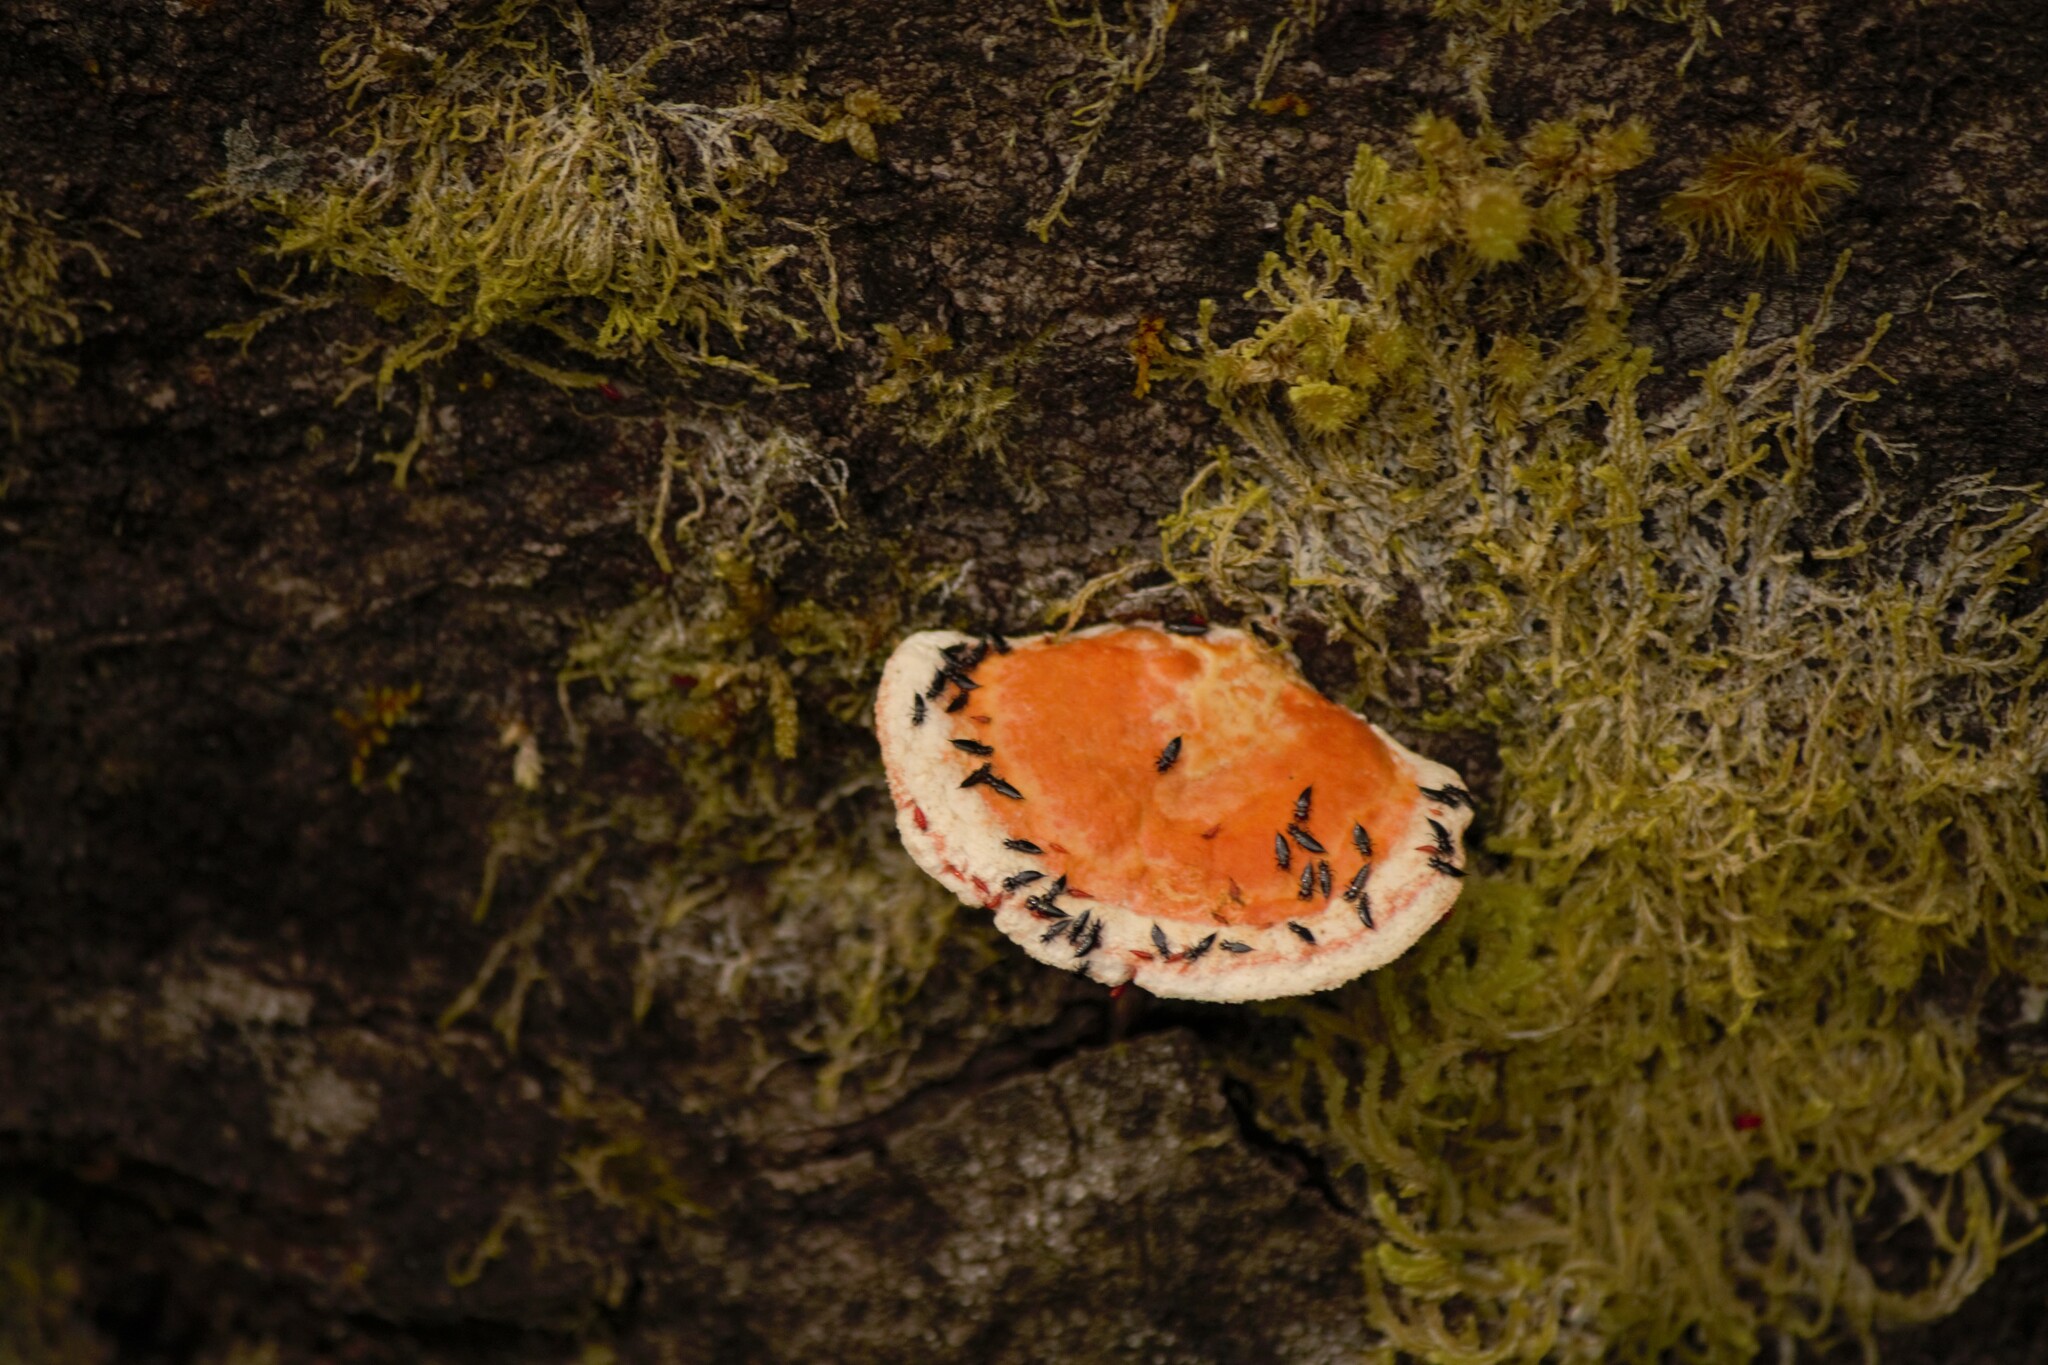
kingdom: Fungi
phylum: Basidiomycota
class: Agaricomycetes
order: Polyporales
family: Polyporaceae
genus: Trametes
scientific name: Trametes coccinea
